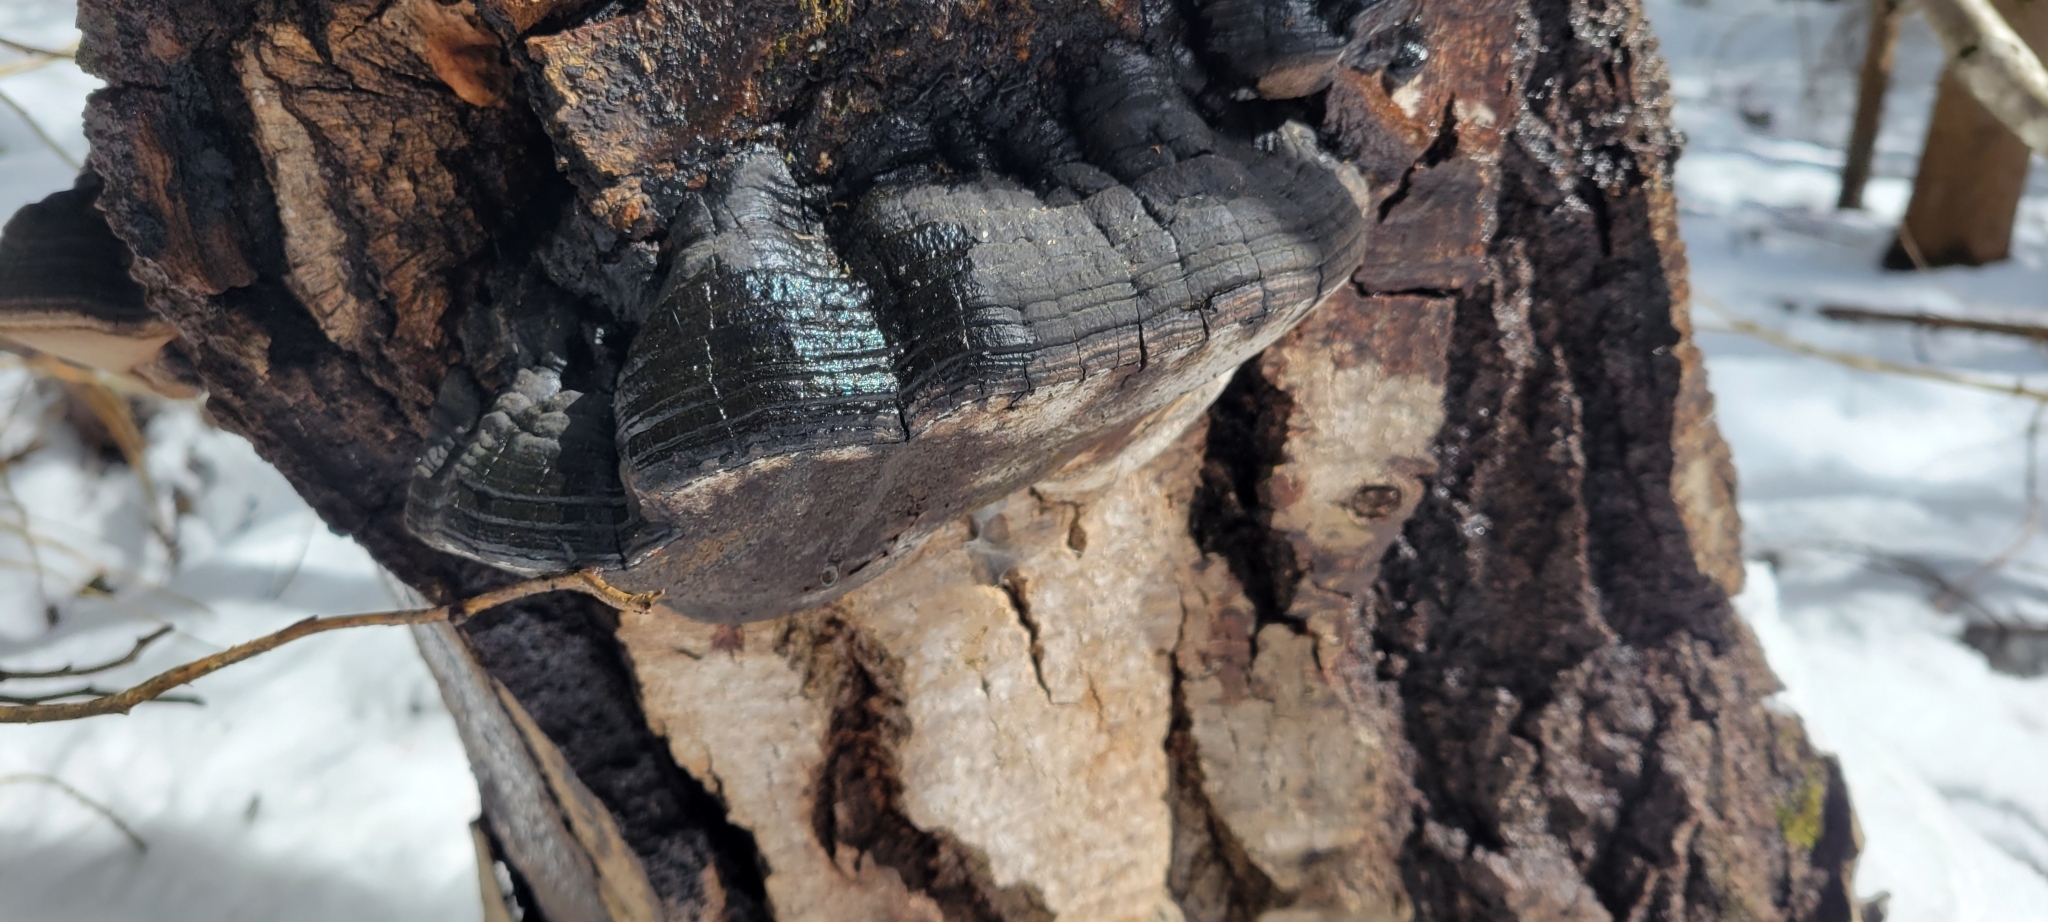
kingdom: Fungi
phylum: Basidiomycota
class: Agaricomycetes
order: Hymenochaetales
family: Hymenochaetaceae
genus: Phellinus
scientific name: Phellinus tremulae
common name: Aspen bracket
